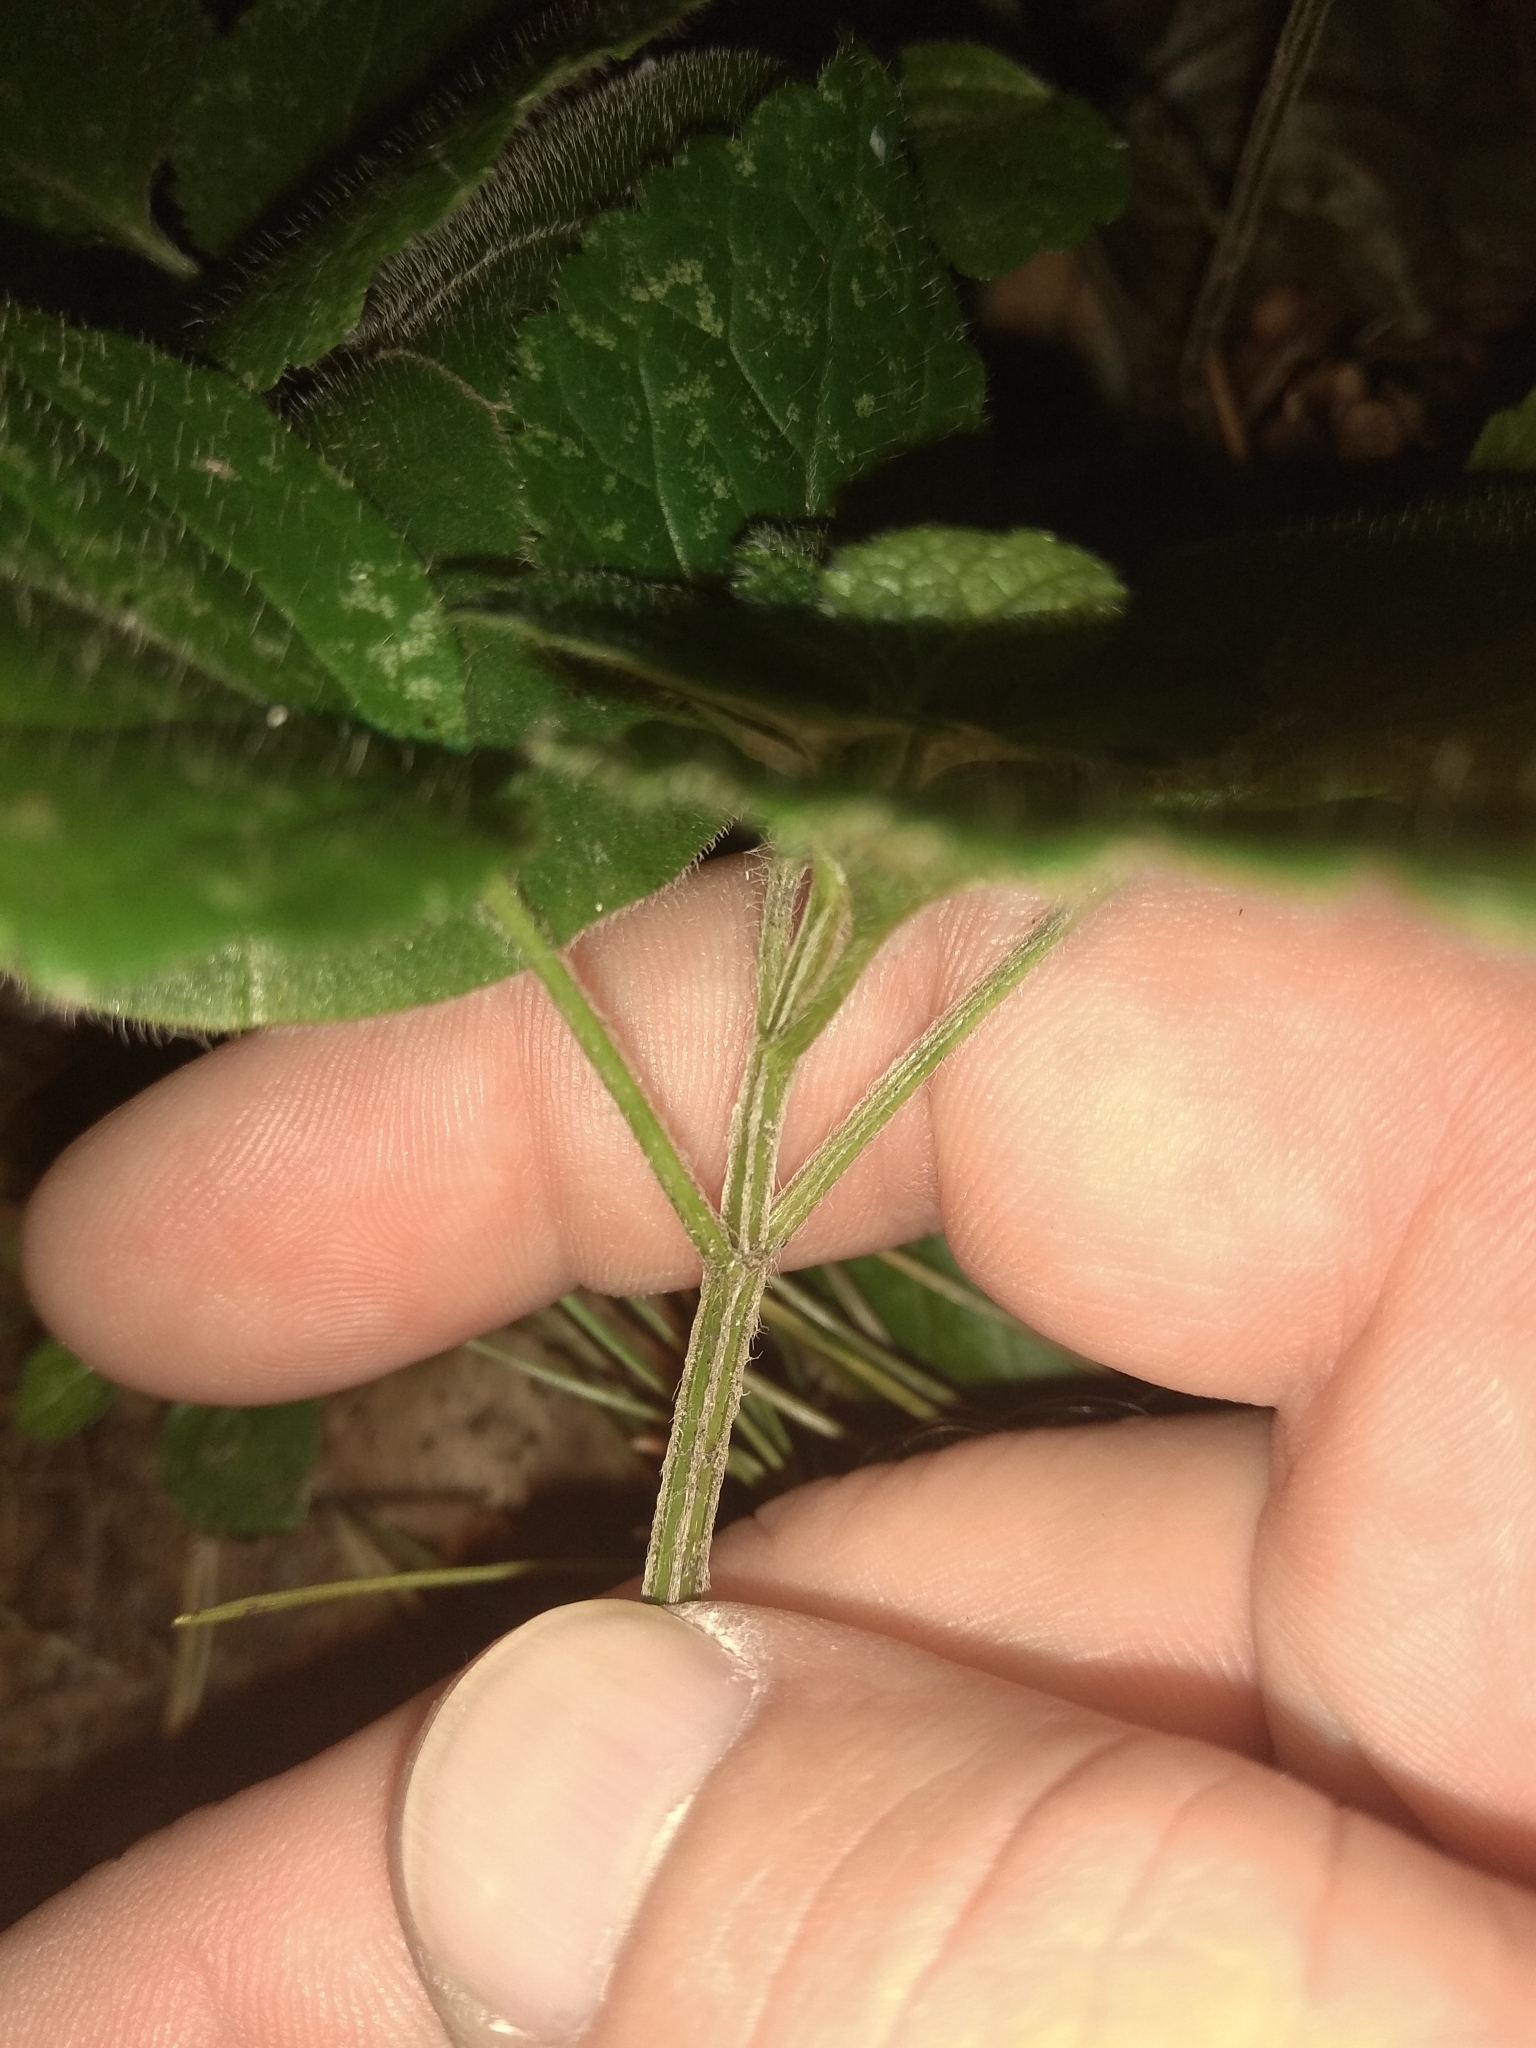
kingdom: Plantae
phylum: Tracheophyta
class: Magnoliopsida
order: Lamiales
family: Lamiaceae
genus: Lamium
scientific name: Lamium galeobdolon
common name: Yellow archangel
